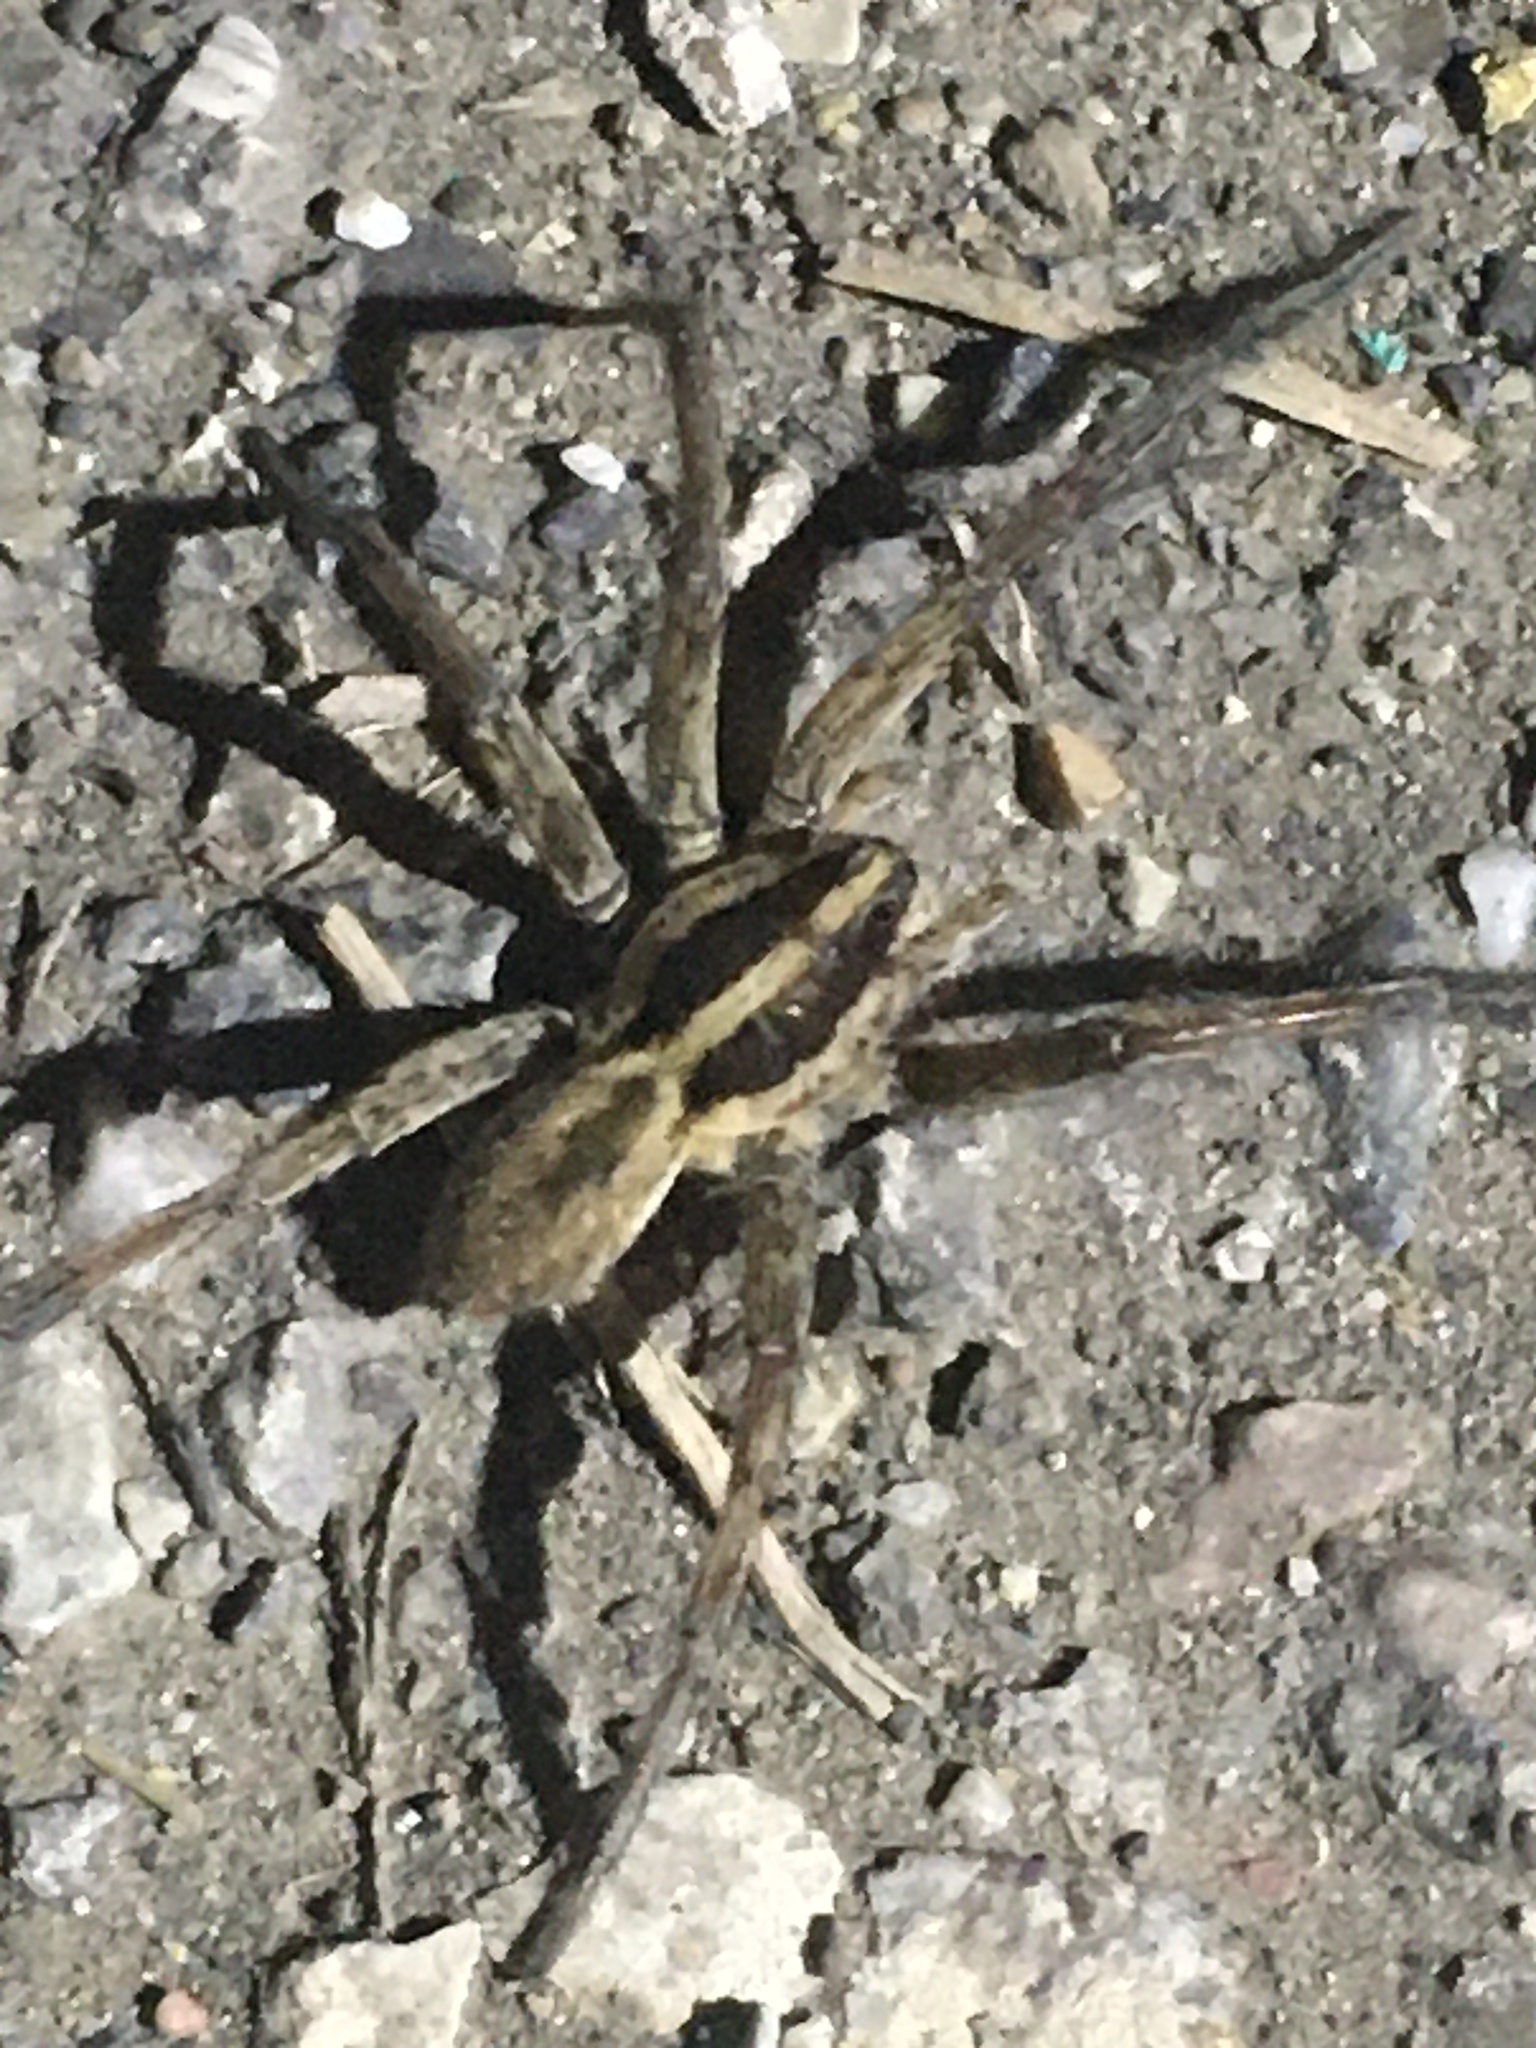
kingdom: Animalia
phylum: Arthropoda
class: Arachnida
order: Araneae
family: Lycosidae
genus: Hogna
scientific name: Hogna radiata
